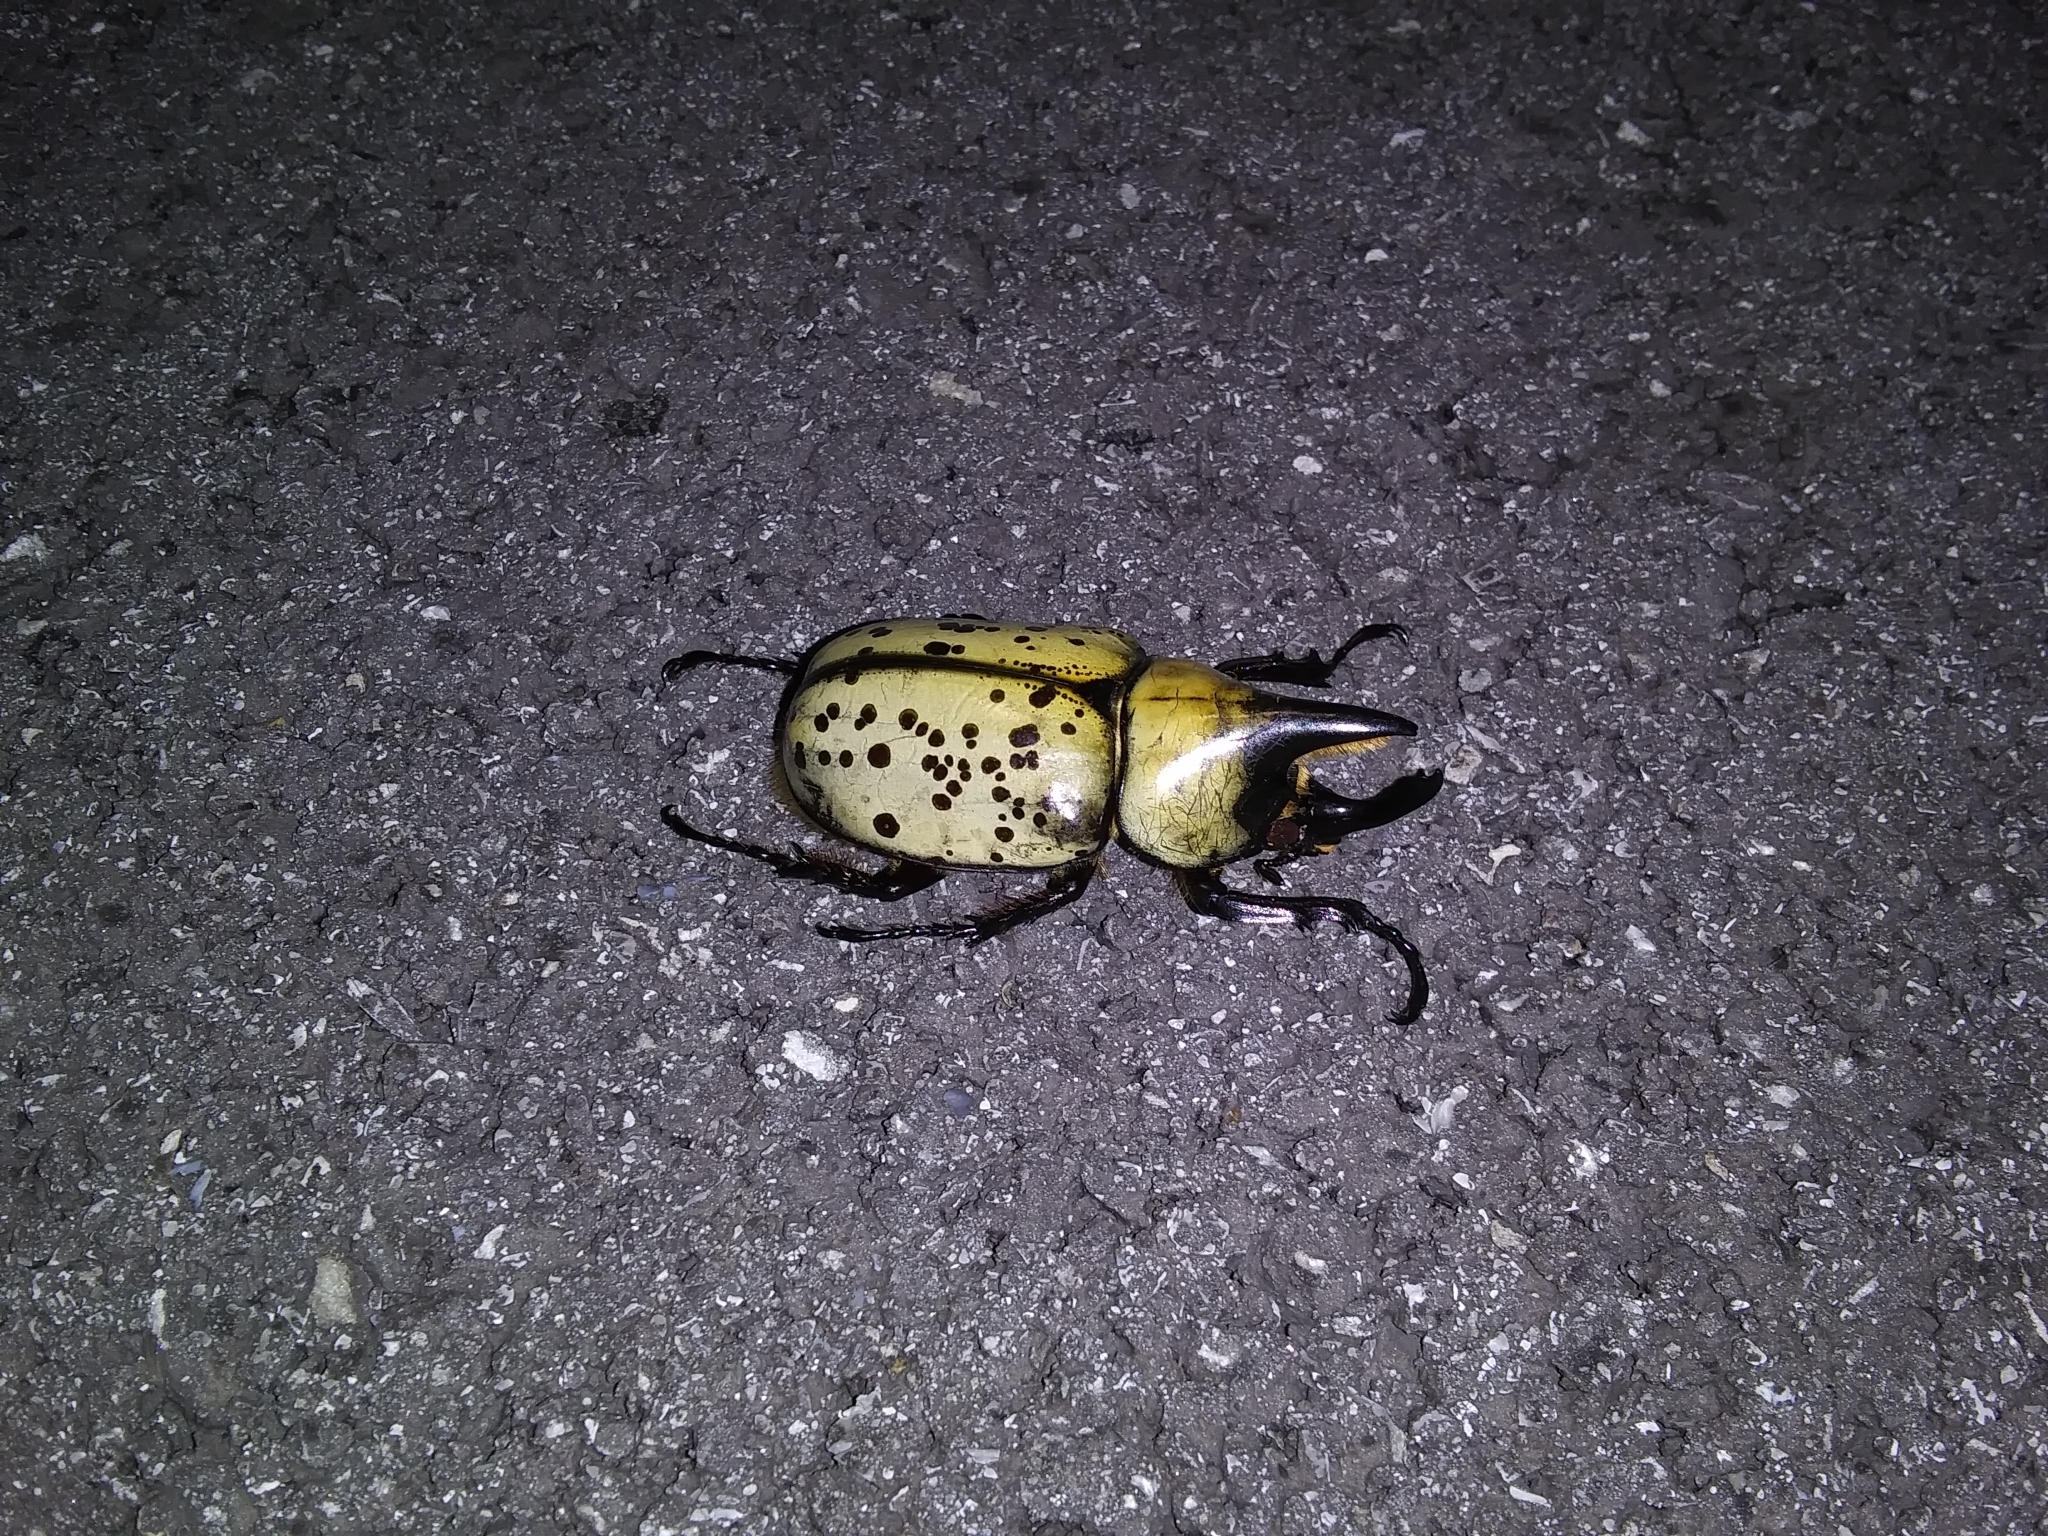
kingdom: Animalia
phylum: Arthropoda
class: Insecta
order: Coleoptera
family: Scarabaeidae
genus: Dynastes
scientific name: Dynastes tityus
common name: Eastern hercules beetle
